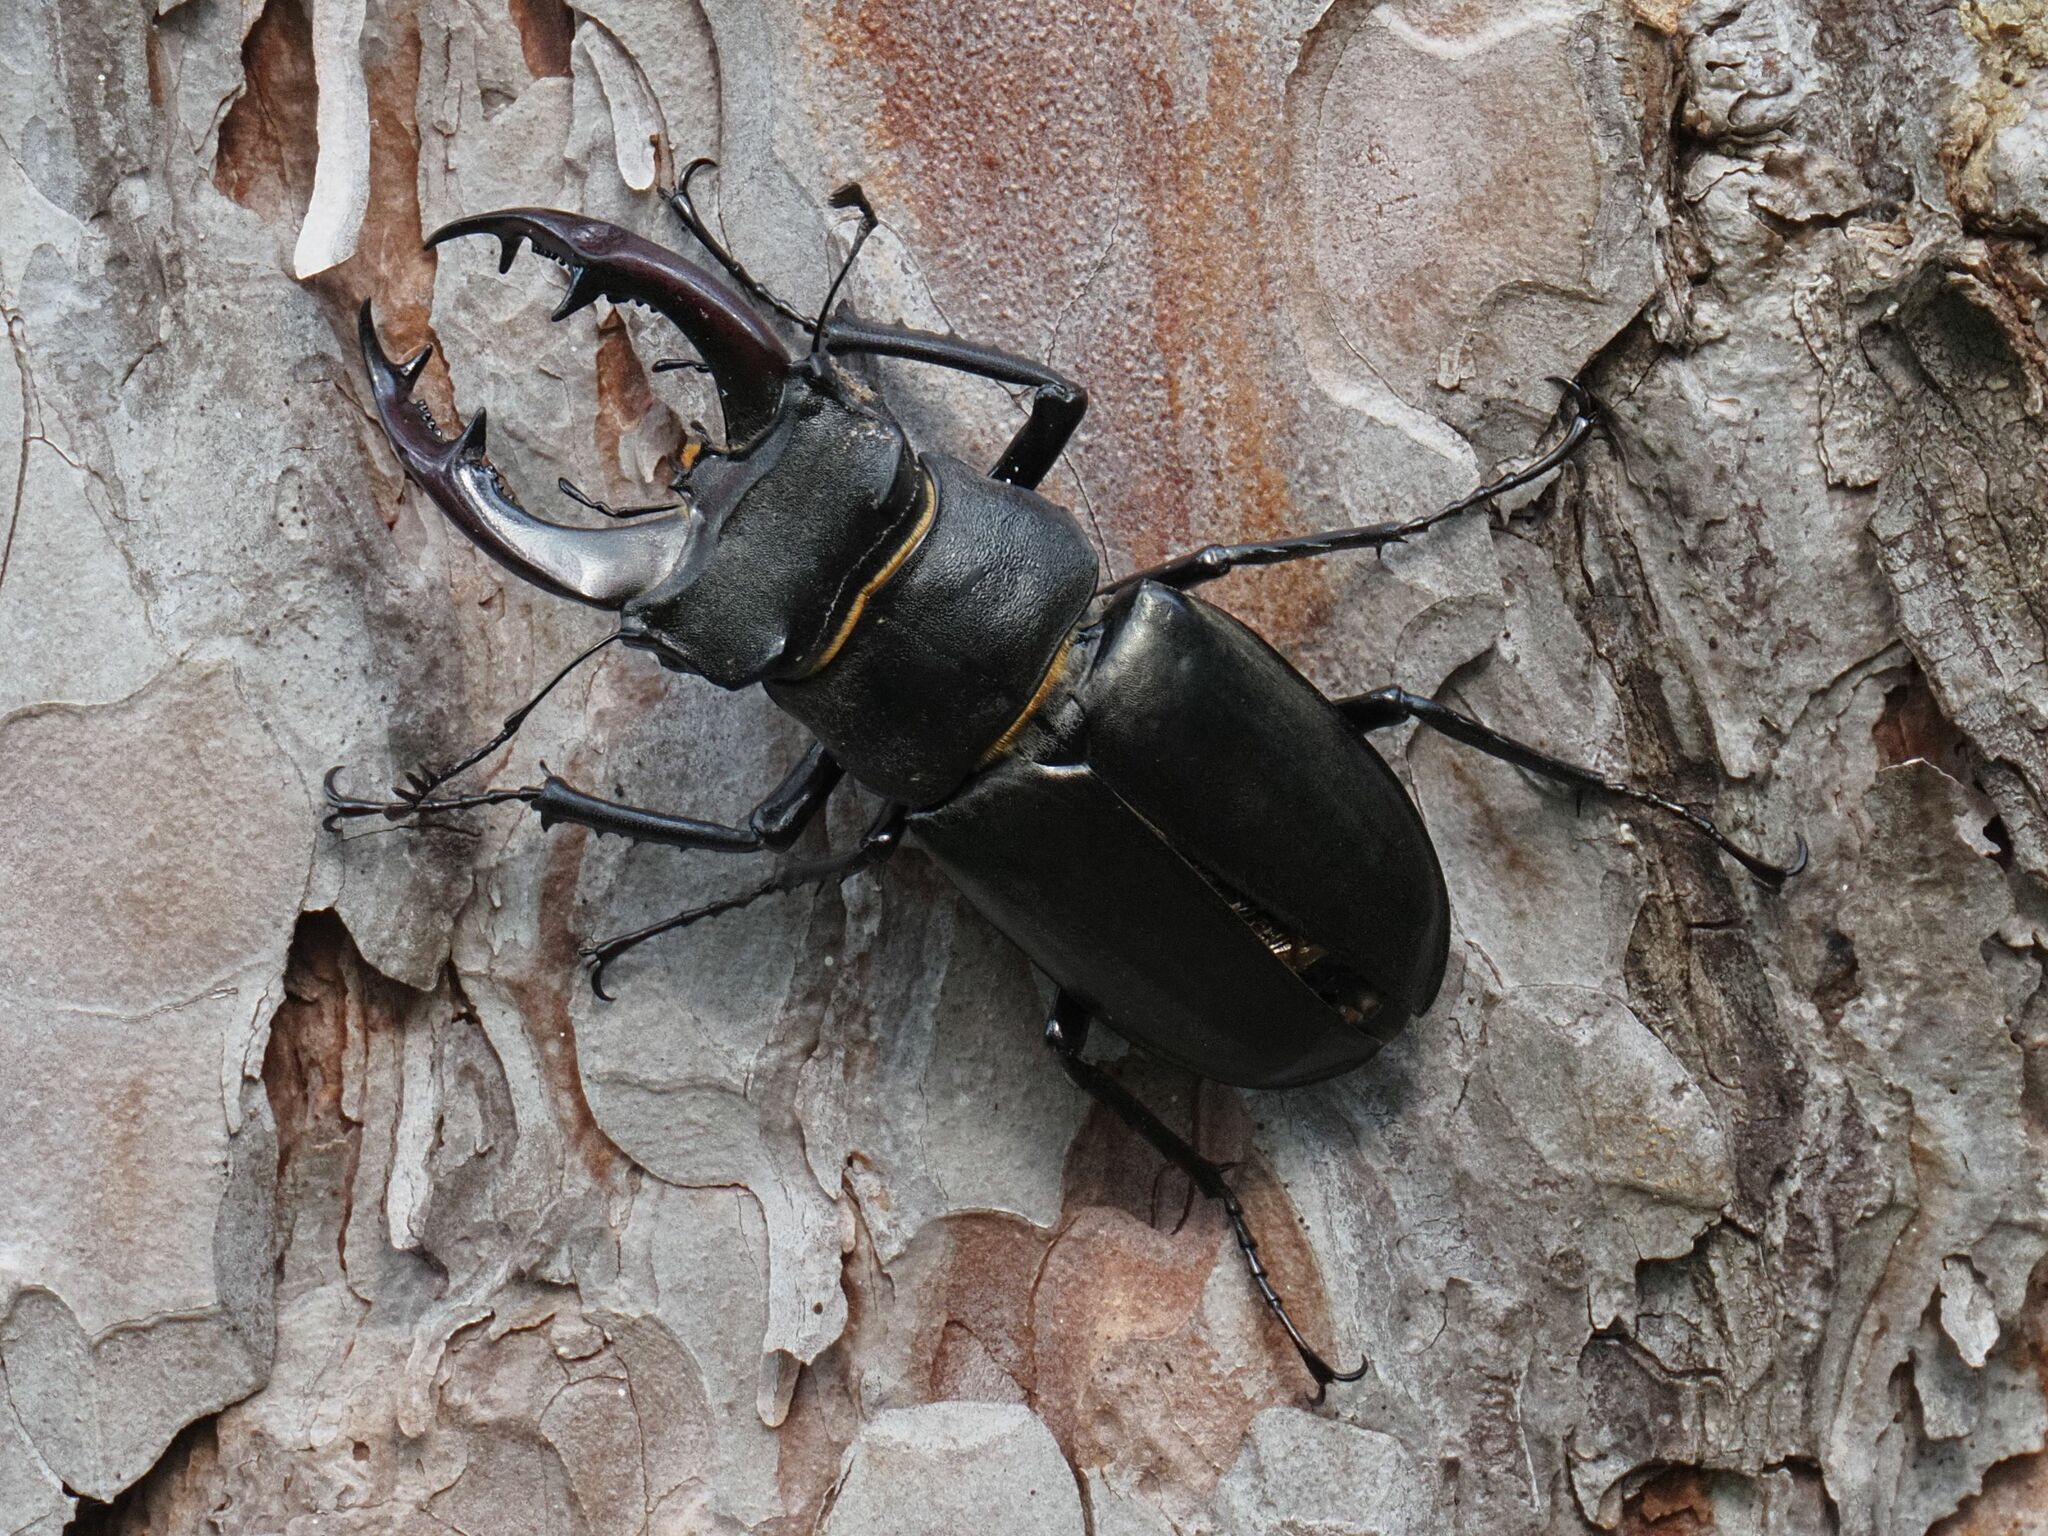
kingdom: Animalia
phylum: Arthropoda
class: Insecta
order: Coleoptera
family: Lucanidae
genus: Lucanus
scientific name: Lucanus cervus
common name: Stag beetle
